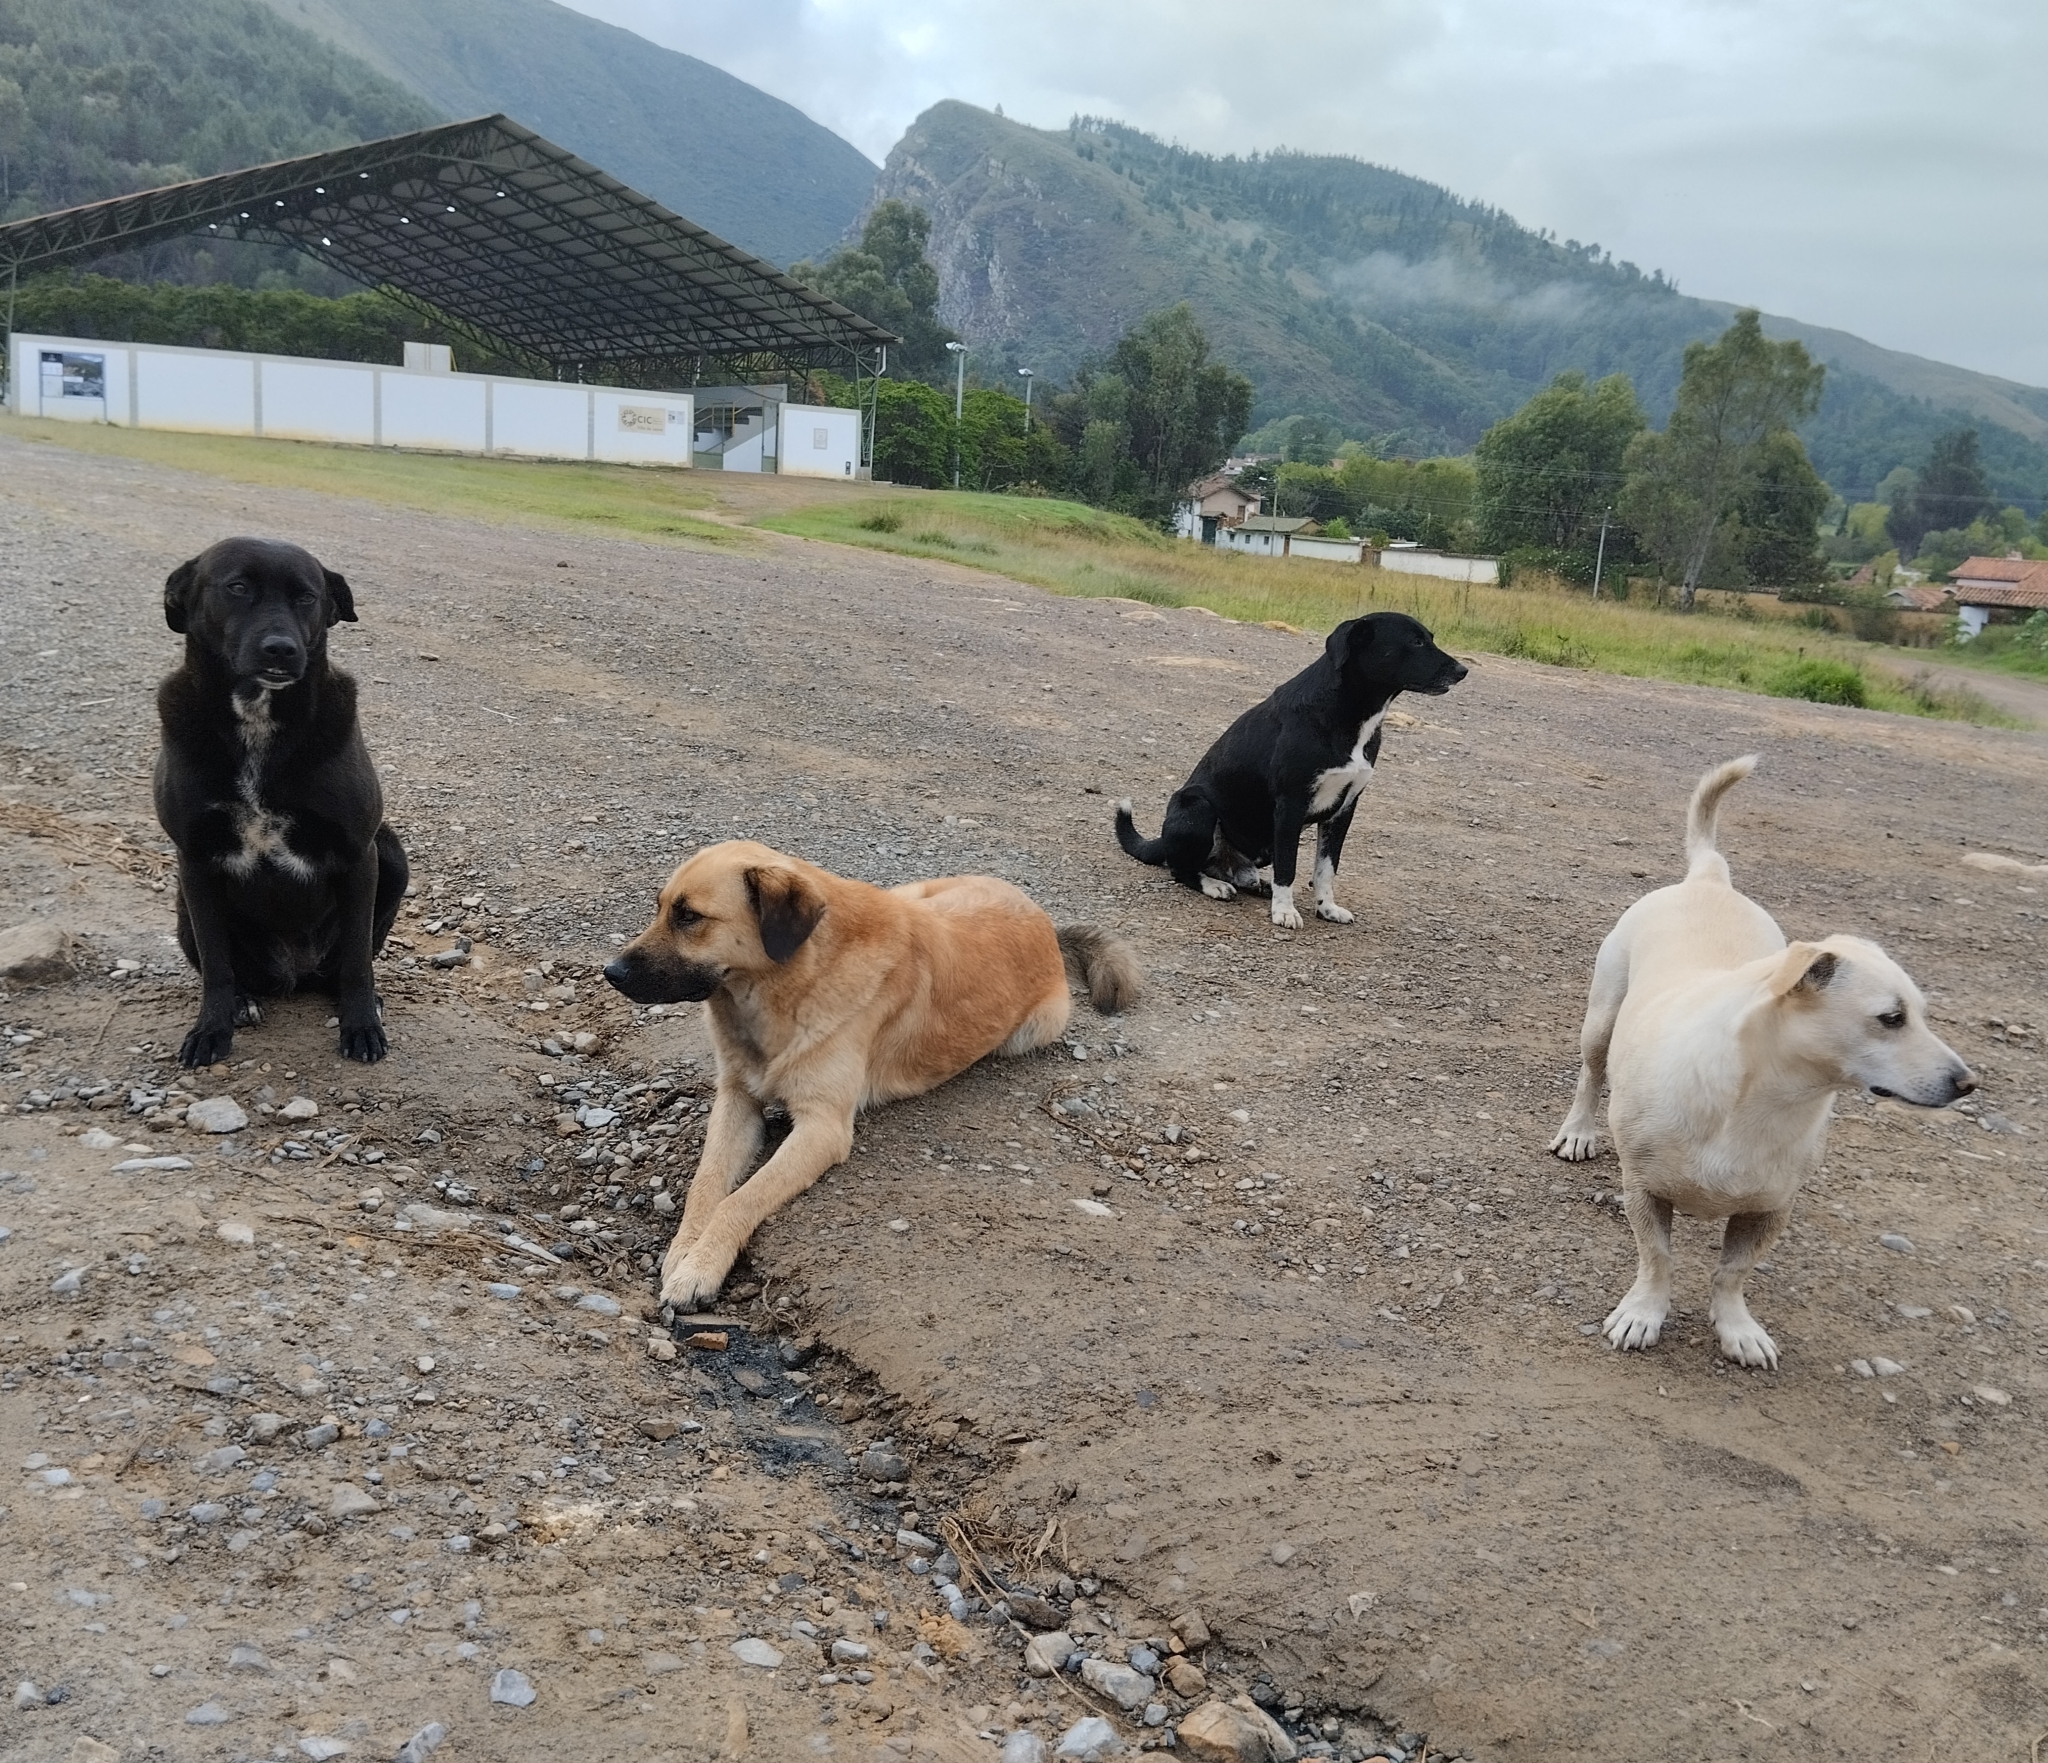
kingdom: Animalia
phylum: Chordata
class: Mammalia
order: Carnivora
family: Canidae
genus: Canis
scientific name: Canis lupus
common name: Gray wolf
